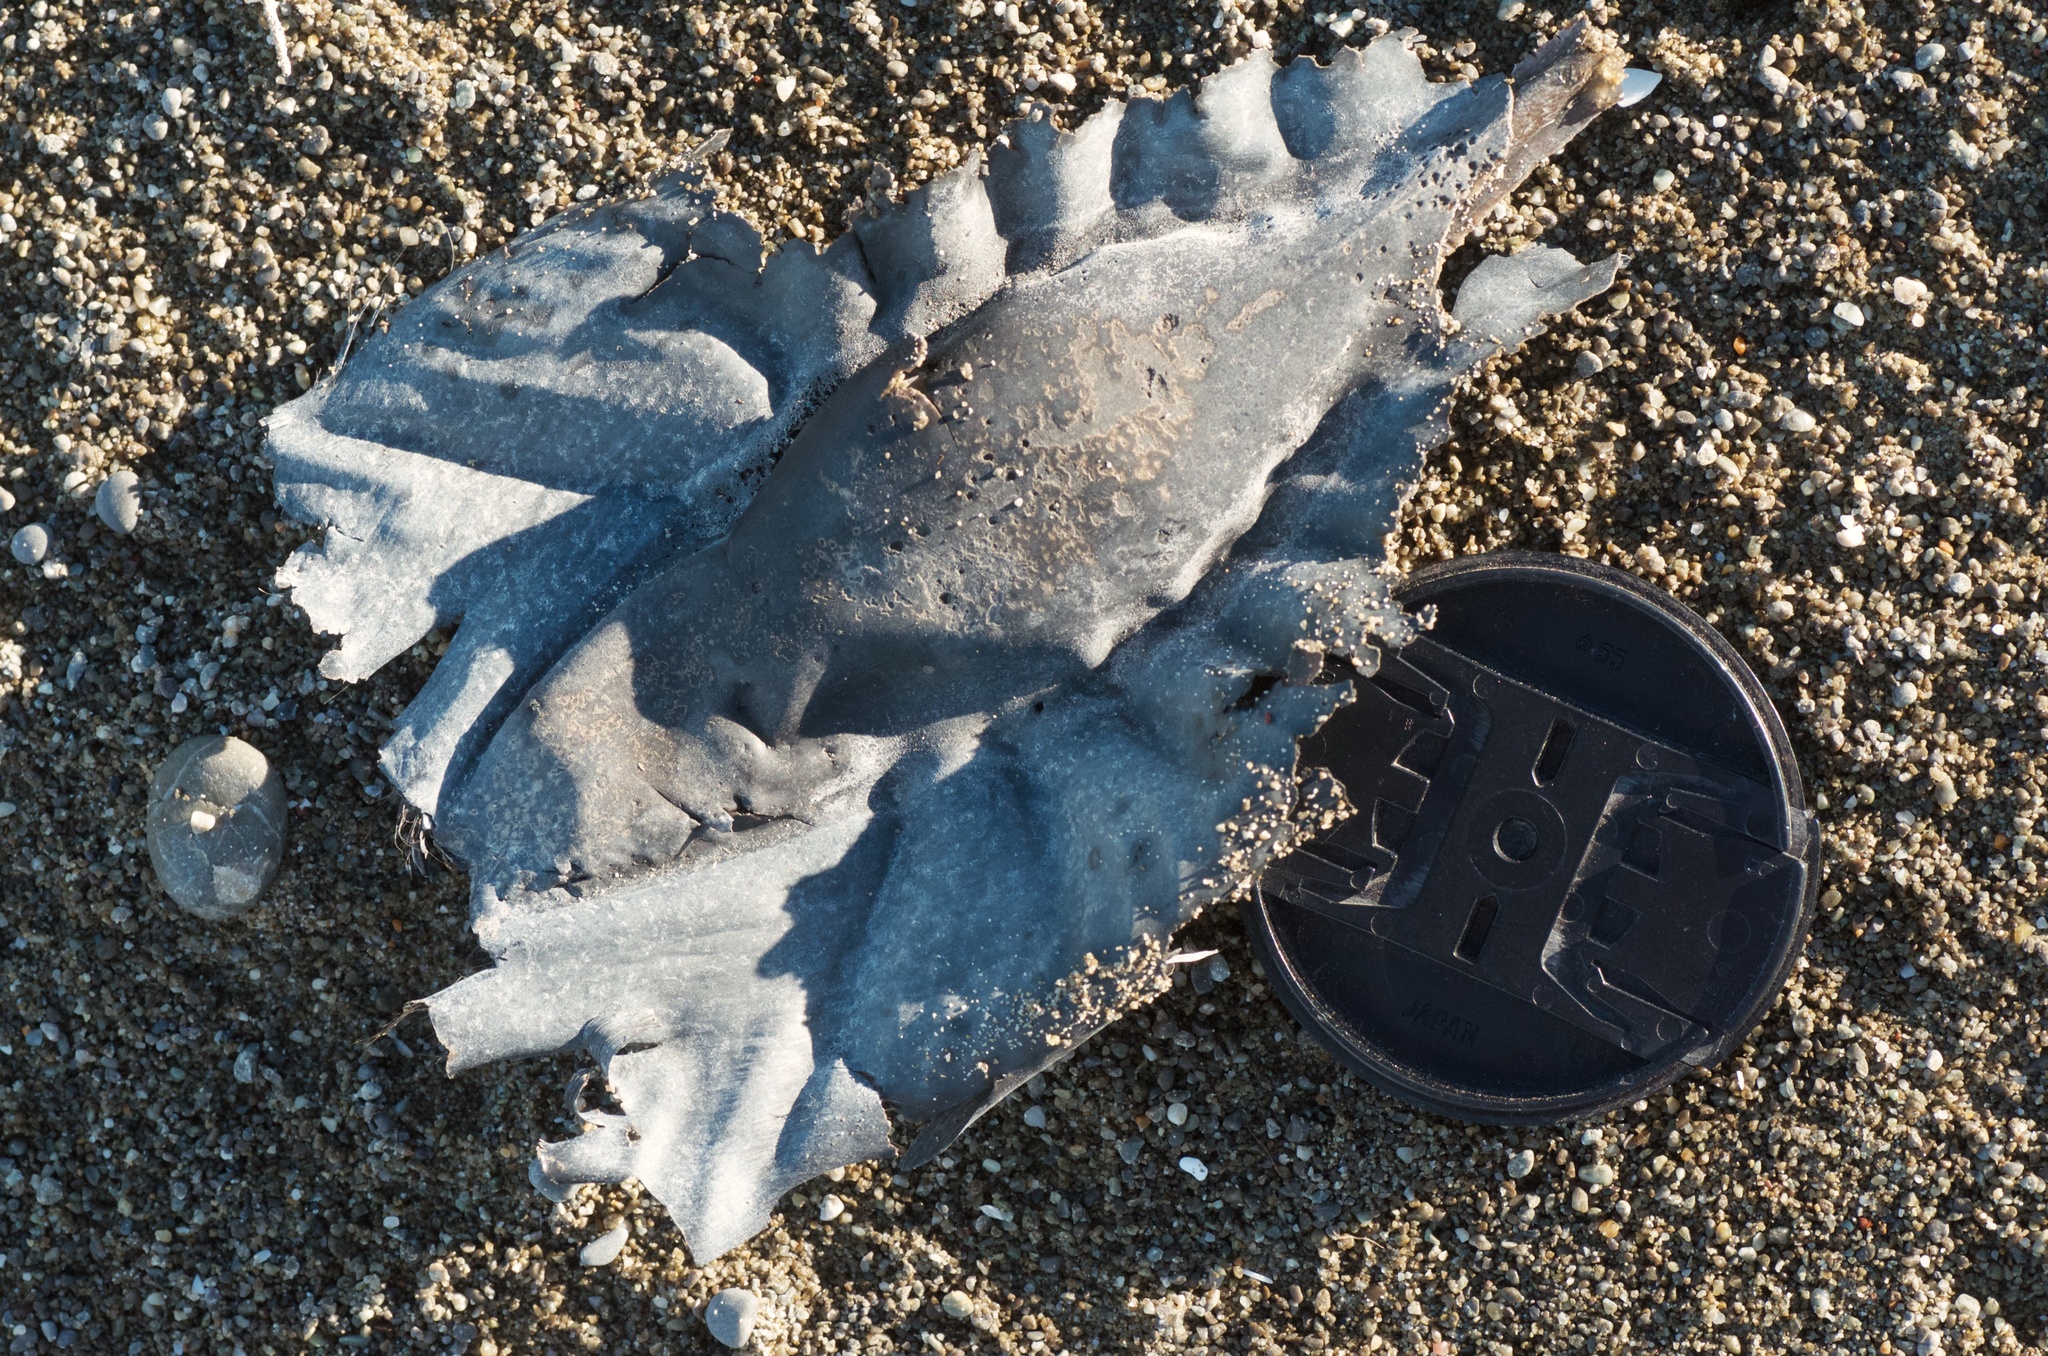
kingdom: Animalia
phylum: Chordata
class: Holocephali
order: Chimaeriformes
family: Callorhinchidae
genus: Callorhinchus
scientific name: Callorhinchus milii
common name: Elephant fish
